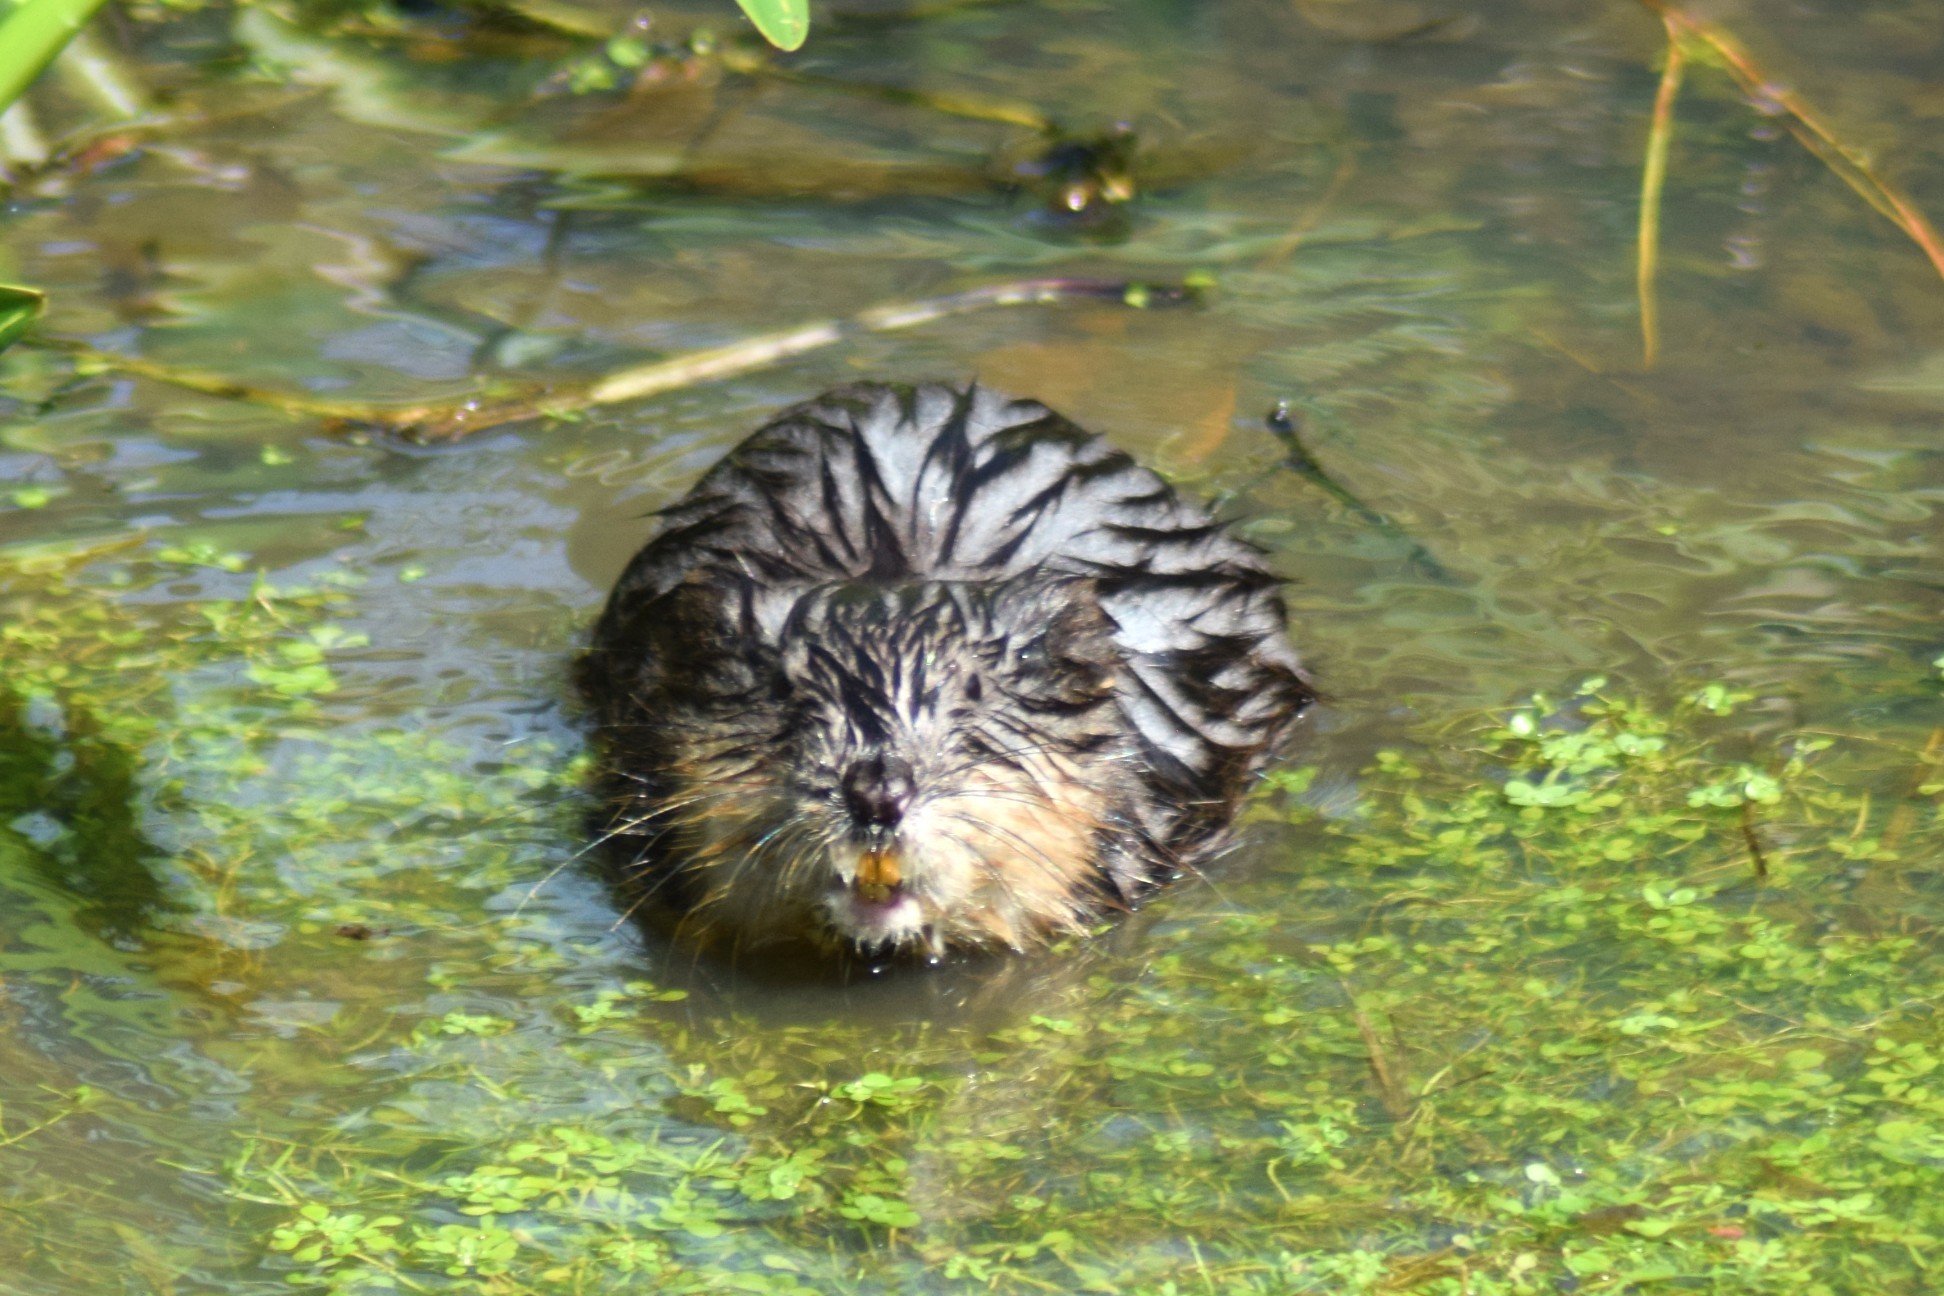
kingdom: Animalia
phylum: Chordata
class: Mammalia
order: Rodentia
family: Cricetidae
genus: Ondatra
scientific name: Ondatra zibethicus
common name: Muskrat
